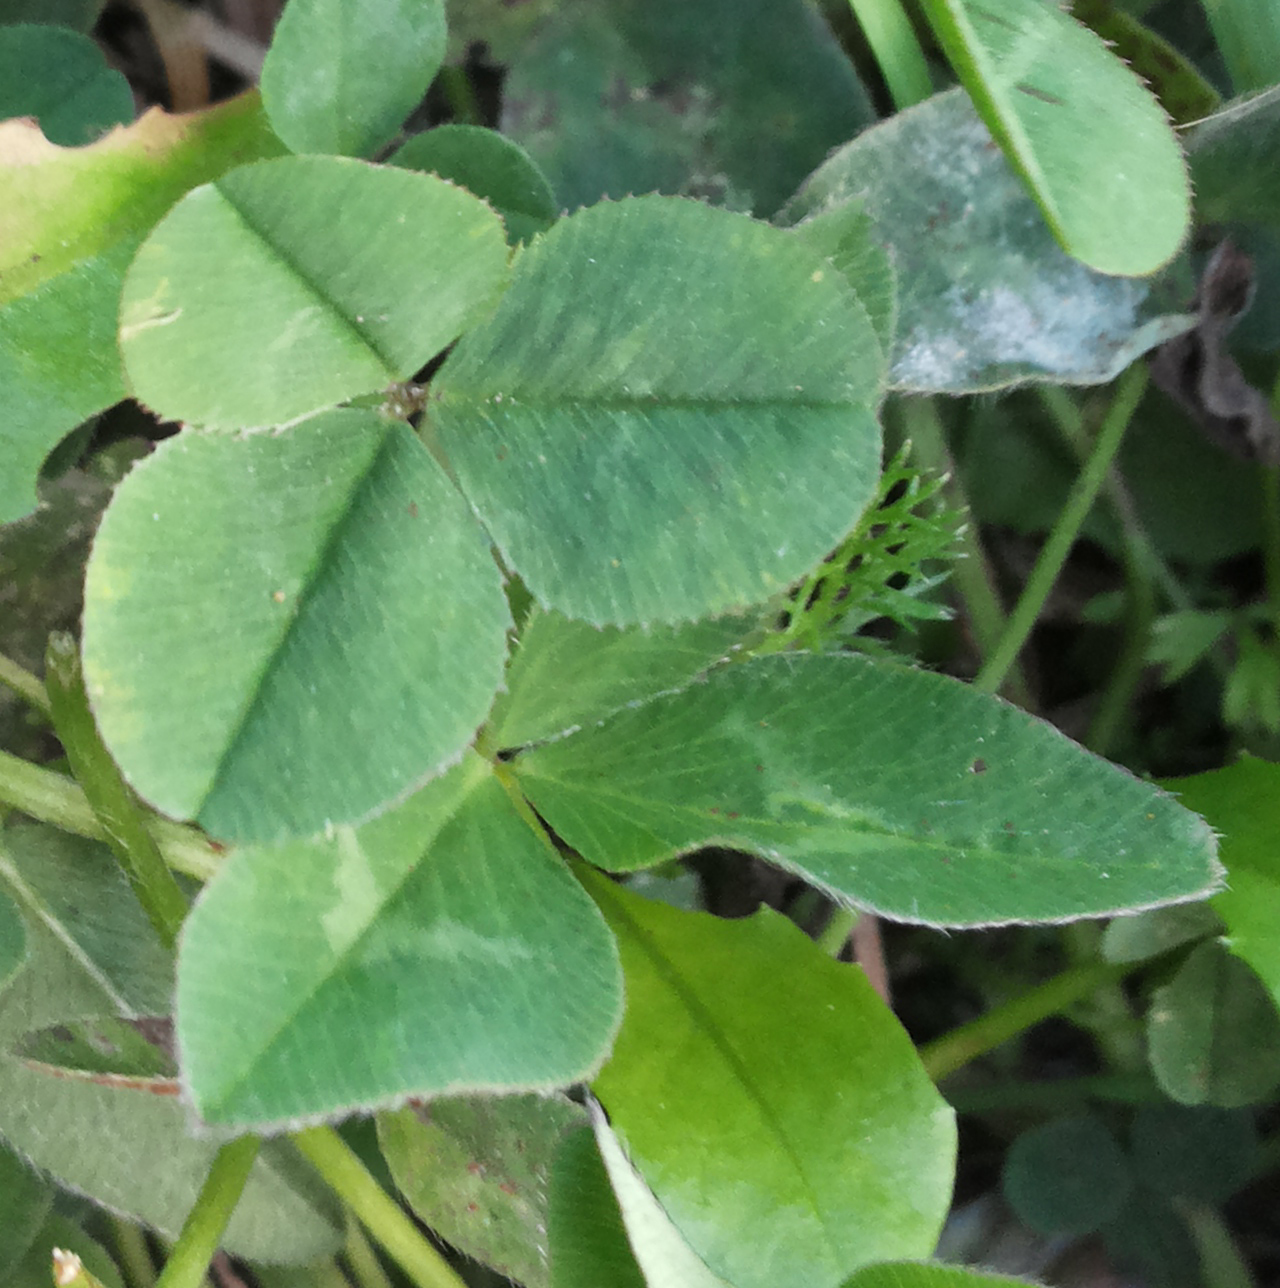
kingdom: Plantae
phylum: Tracheophyta
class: Magnoliopsida
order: Fabales
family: Fabaceae
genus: Trifolium
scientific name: Trifolium pratense
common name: Red clover
